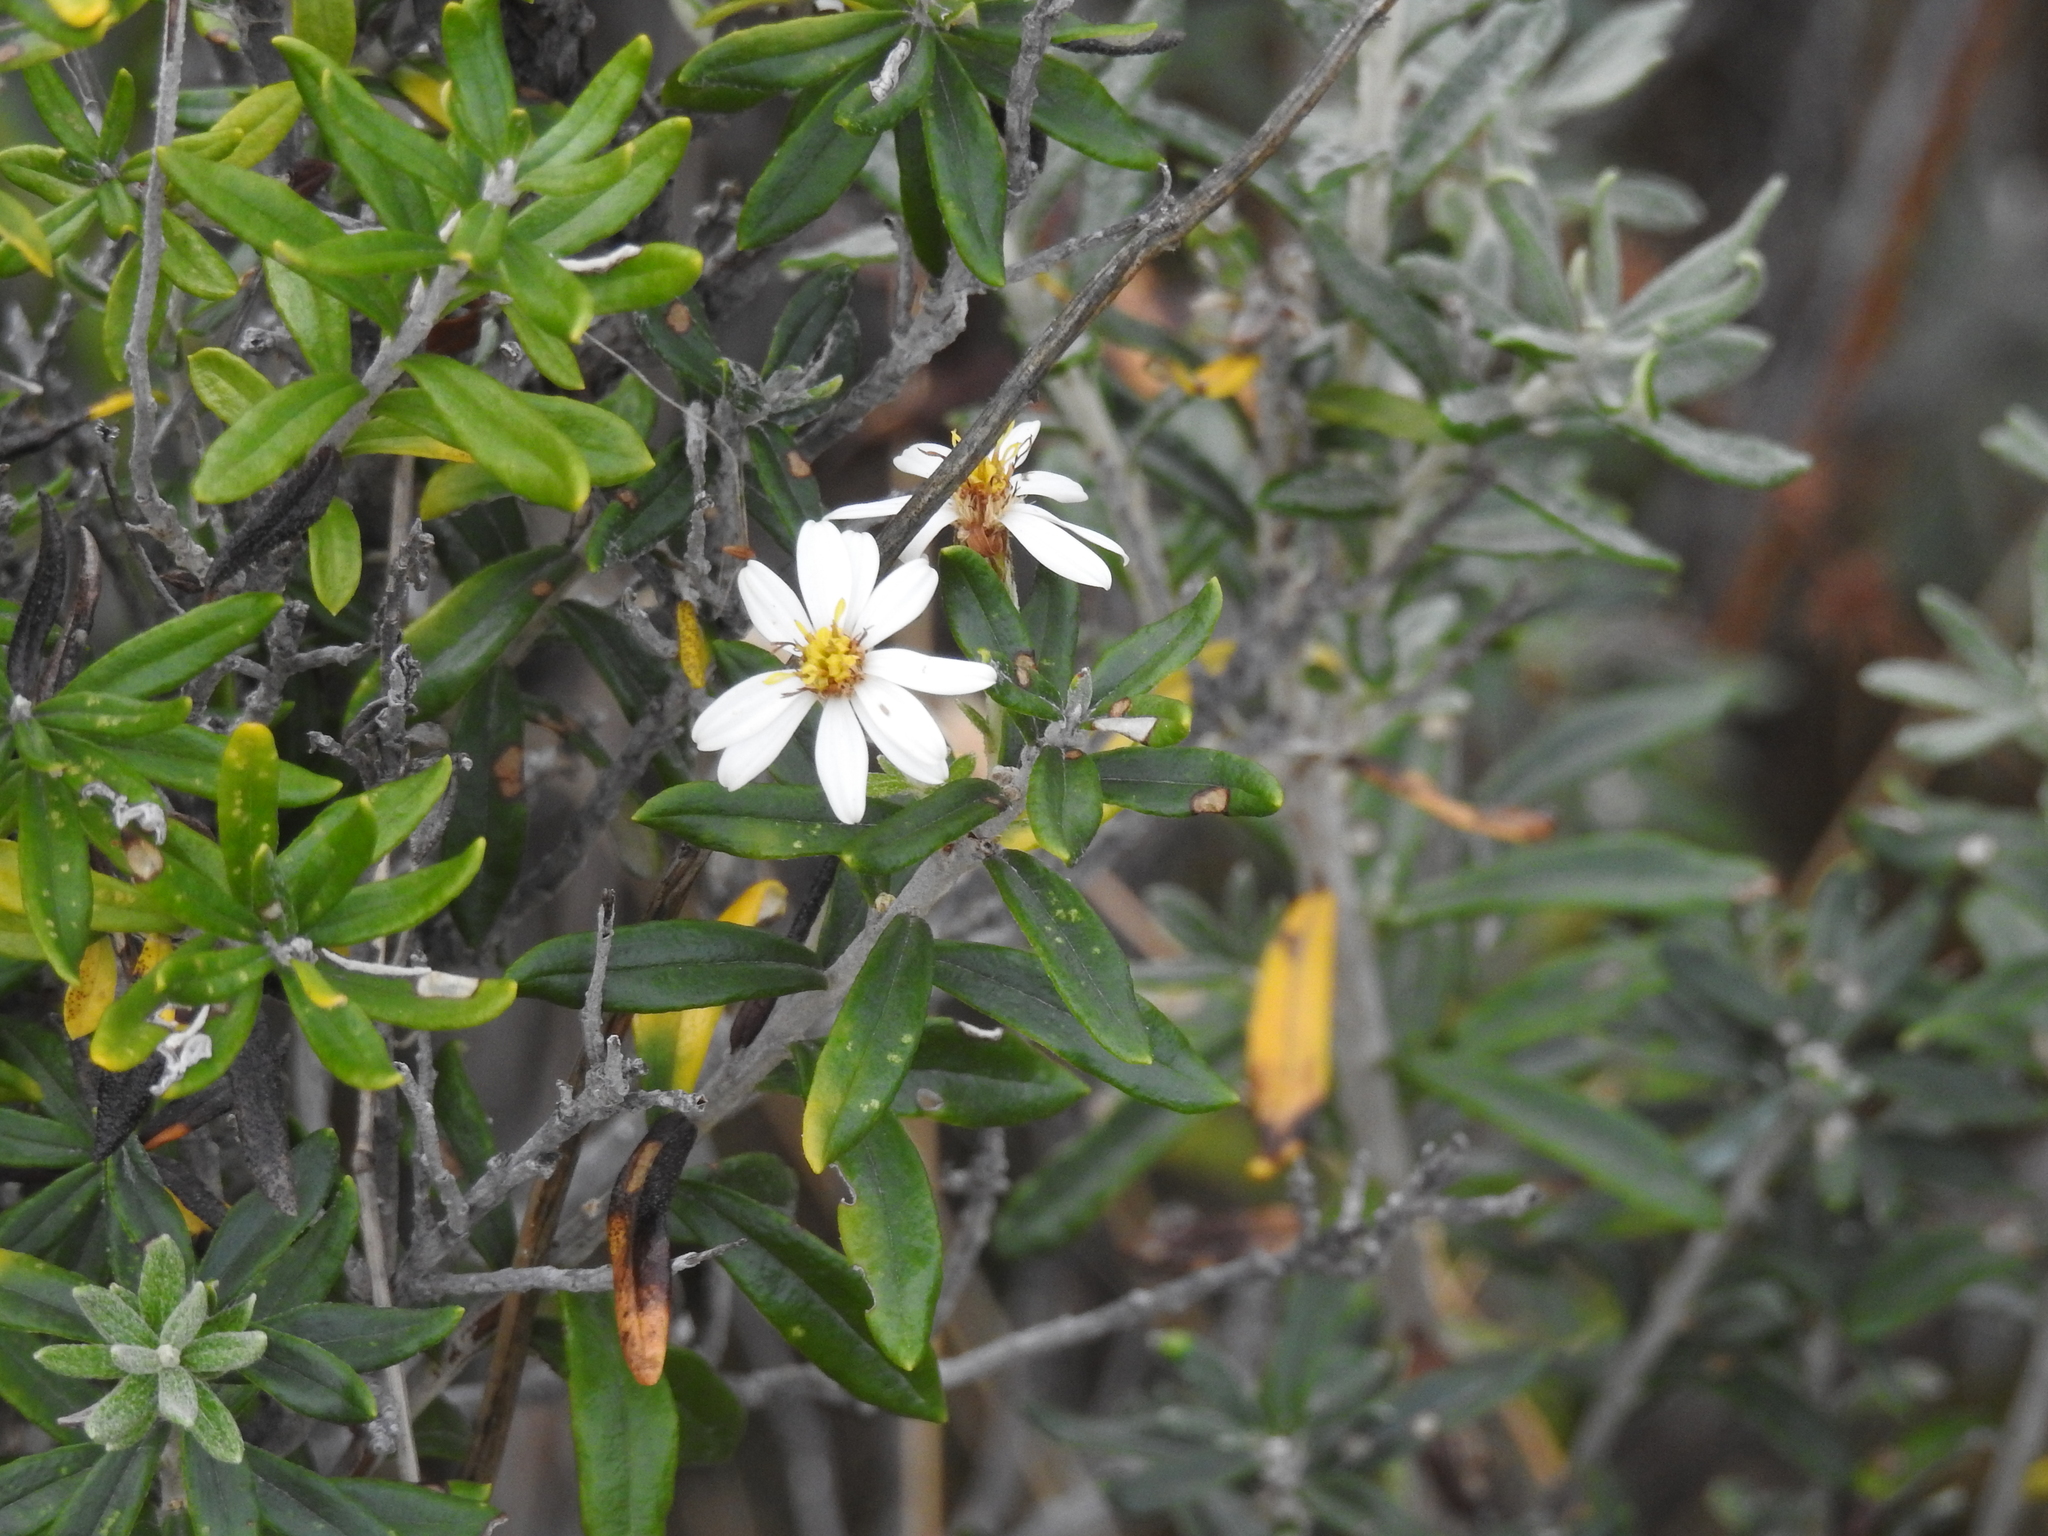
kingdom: Plantae
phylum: Tracheophyta
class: Magnoliopsida
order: Asterales
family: Asteraceae
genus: Chiliotrichum
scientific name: Chiliotrichum diffusum
